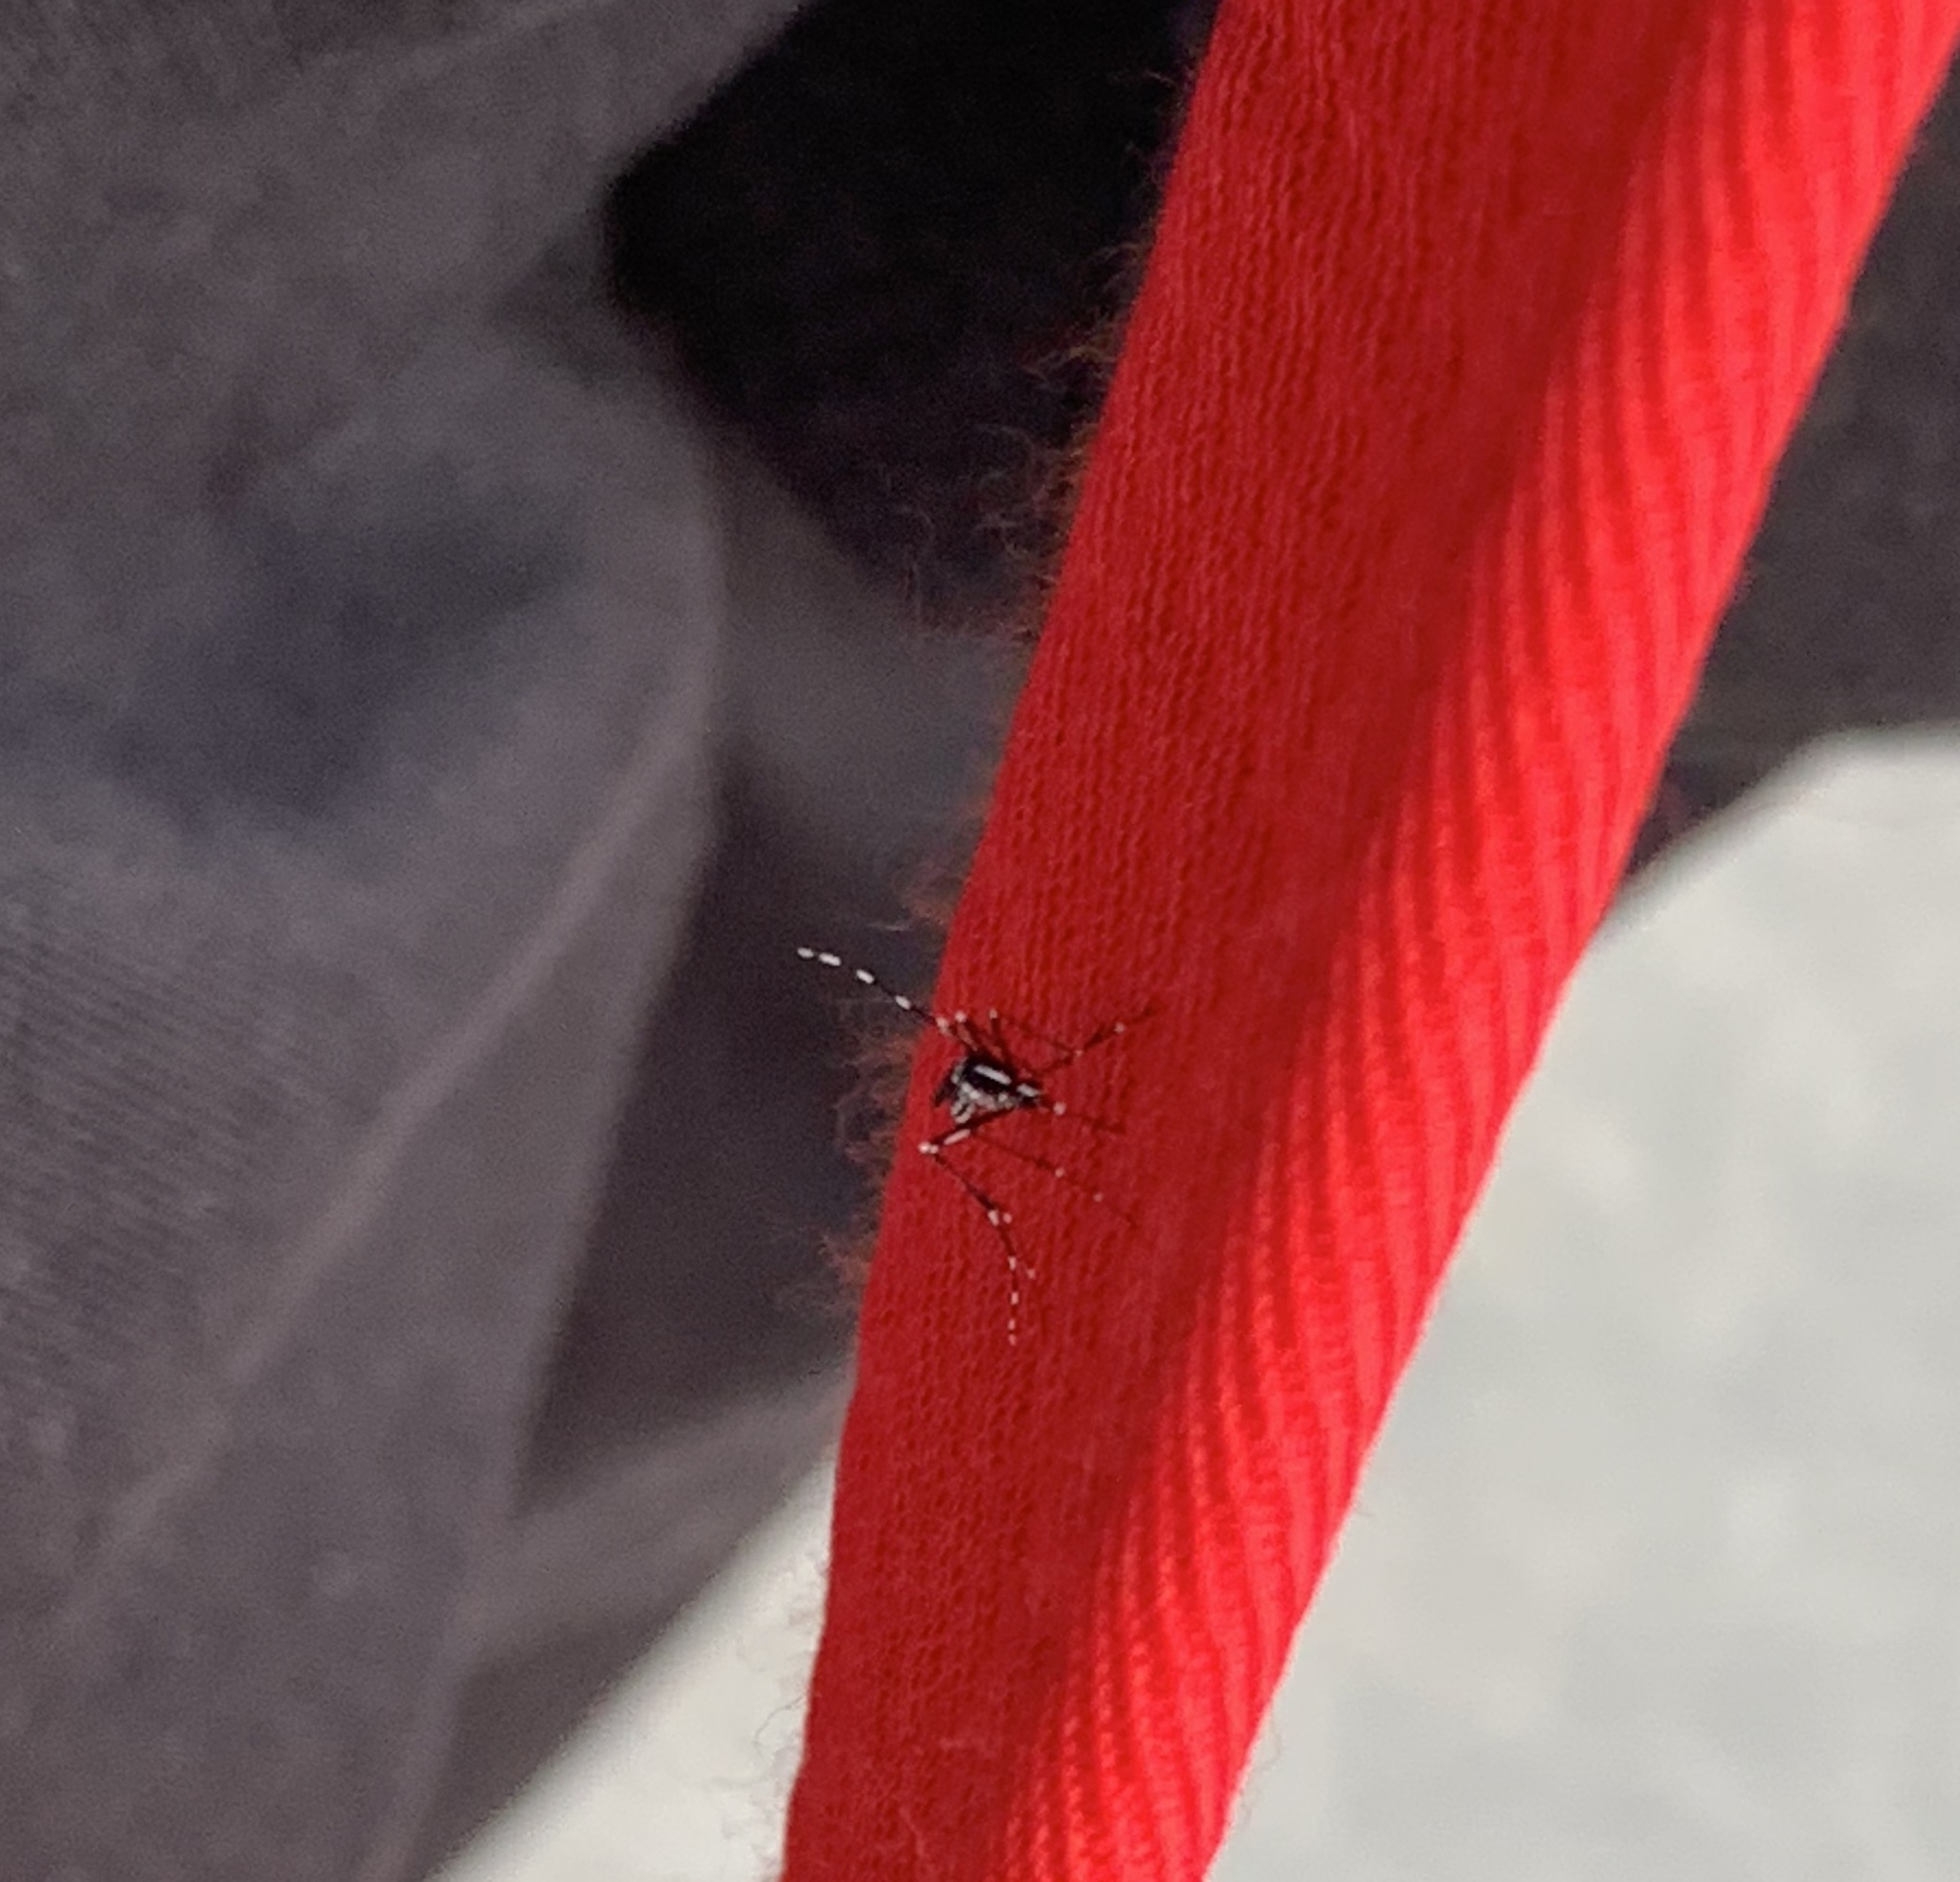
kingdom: Animalia
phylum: Arthropoda
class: Insecta
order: Diptera
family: Culicidae
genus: Aedes
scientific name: Aedes albopictus
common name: Tiger mosquito
